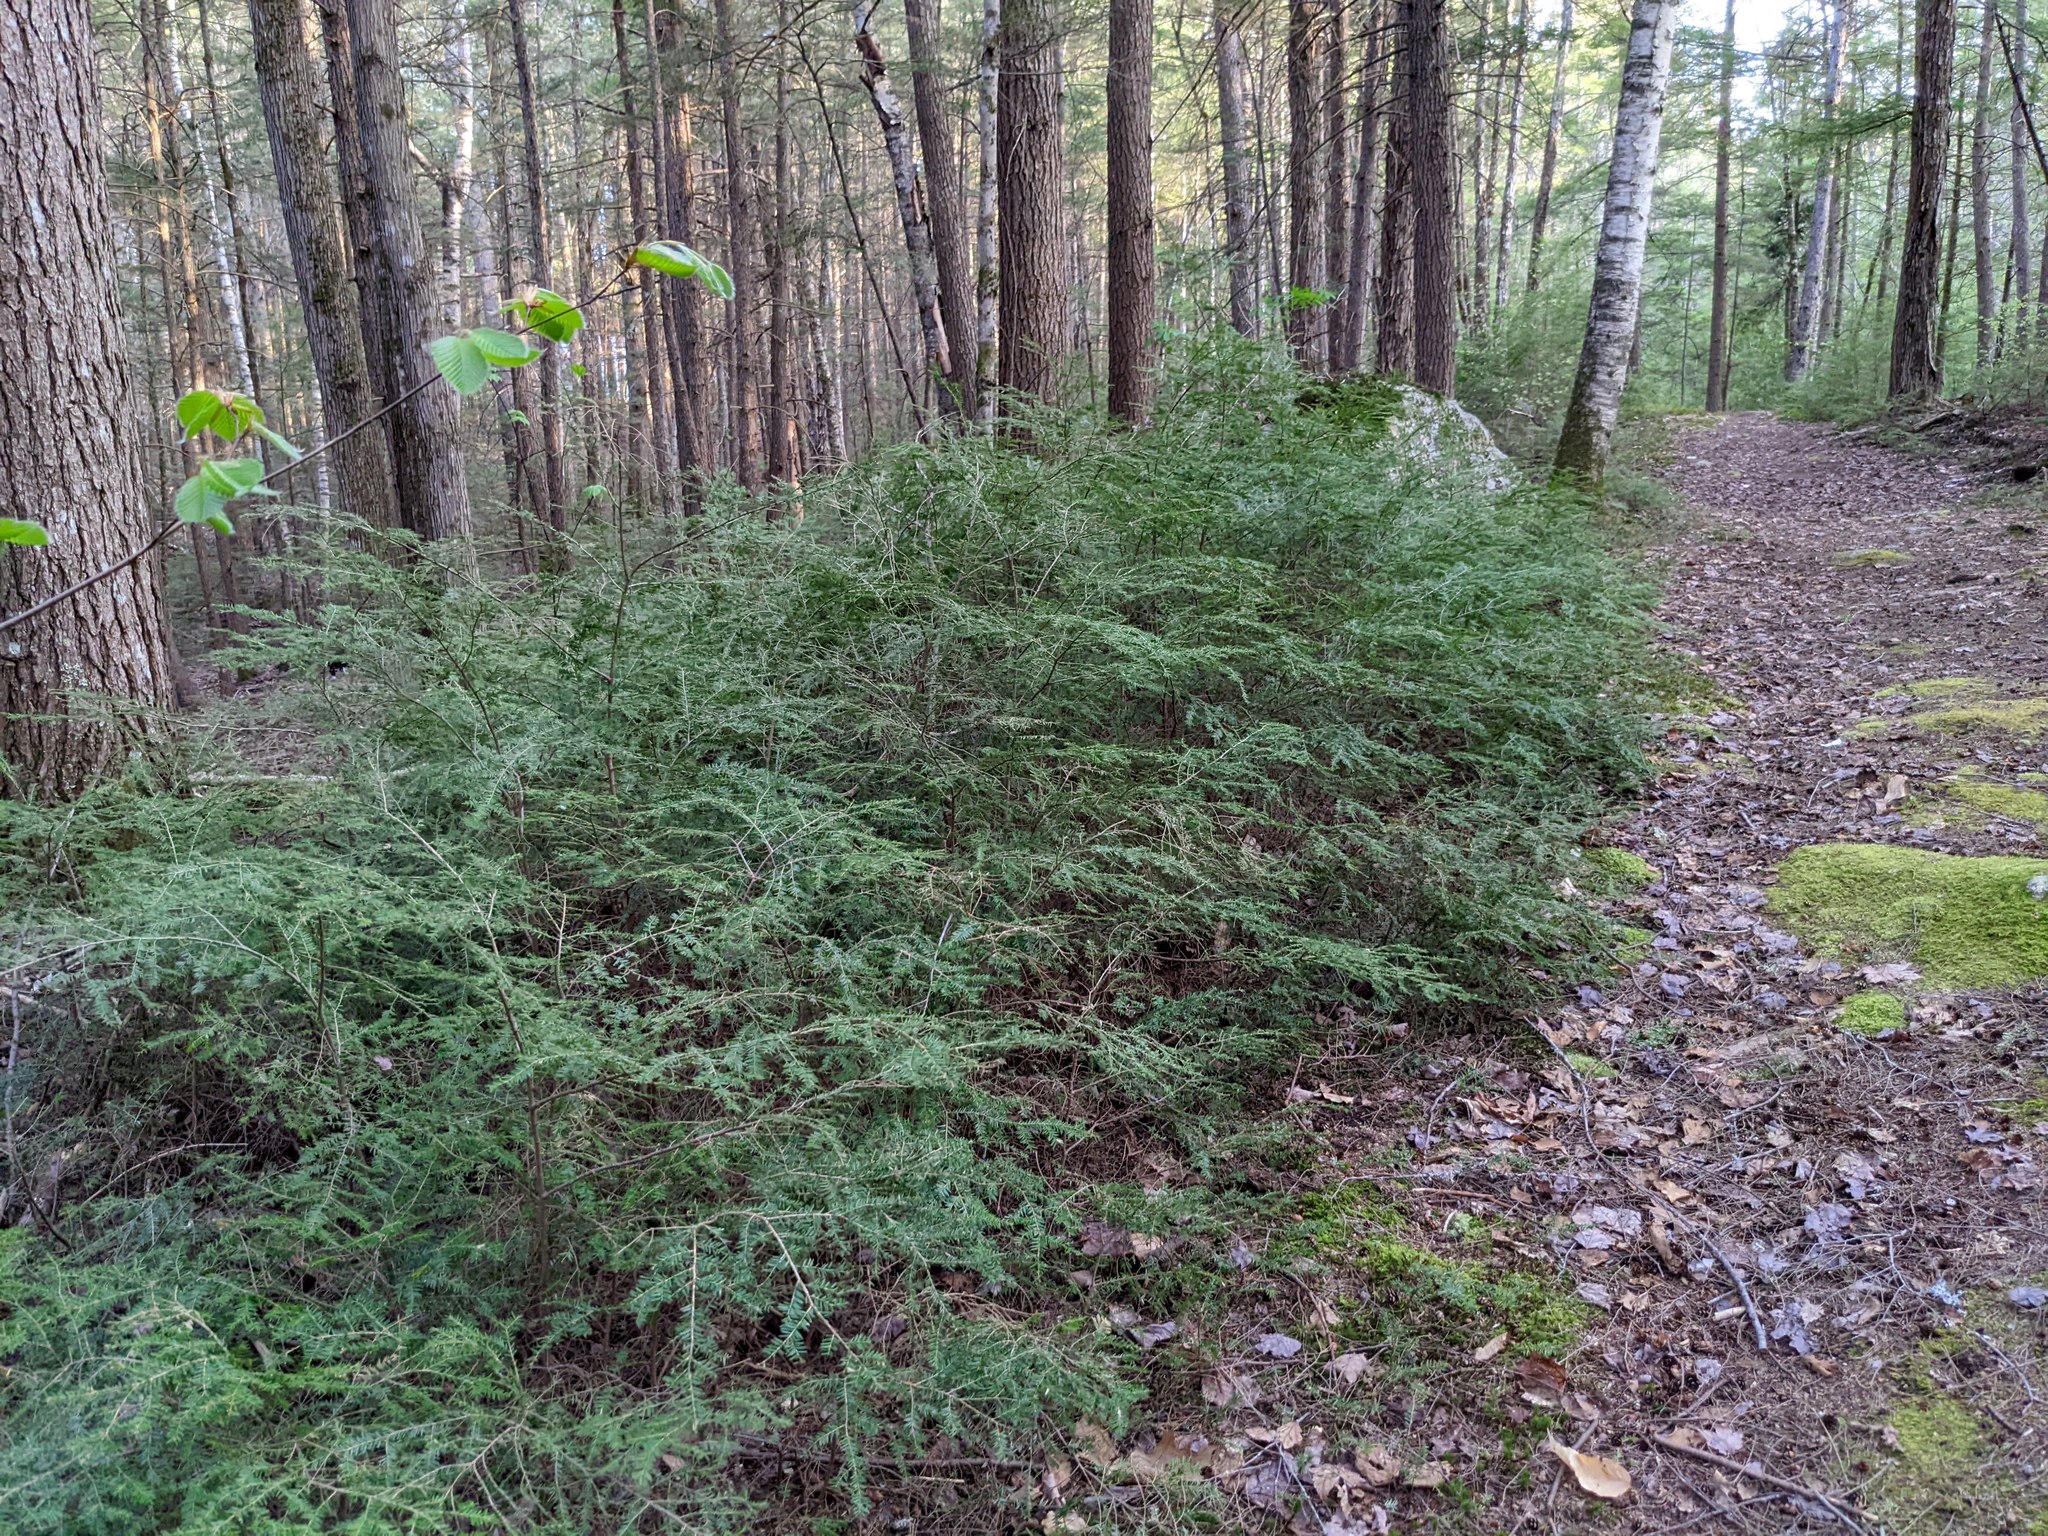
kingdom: Plantae
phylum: Tracheophyta
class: Pinopsida
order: Pinales
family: Pinaceae
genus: Tsuga
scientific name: Tsuga canadensis
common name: Eastern hemlock
